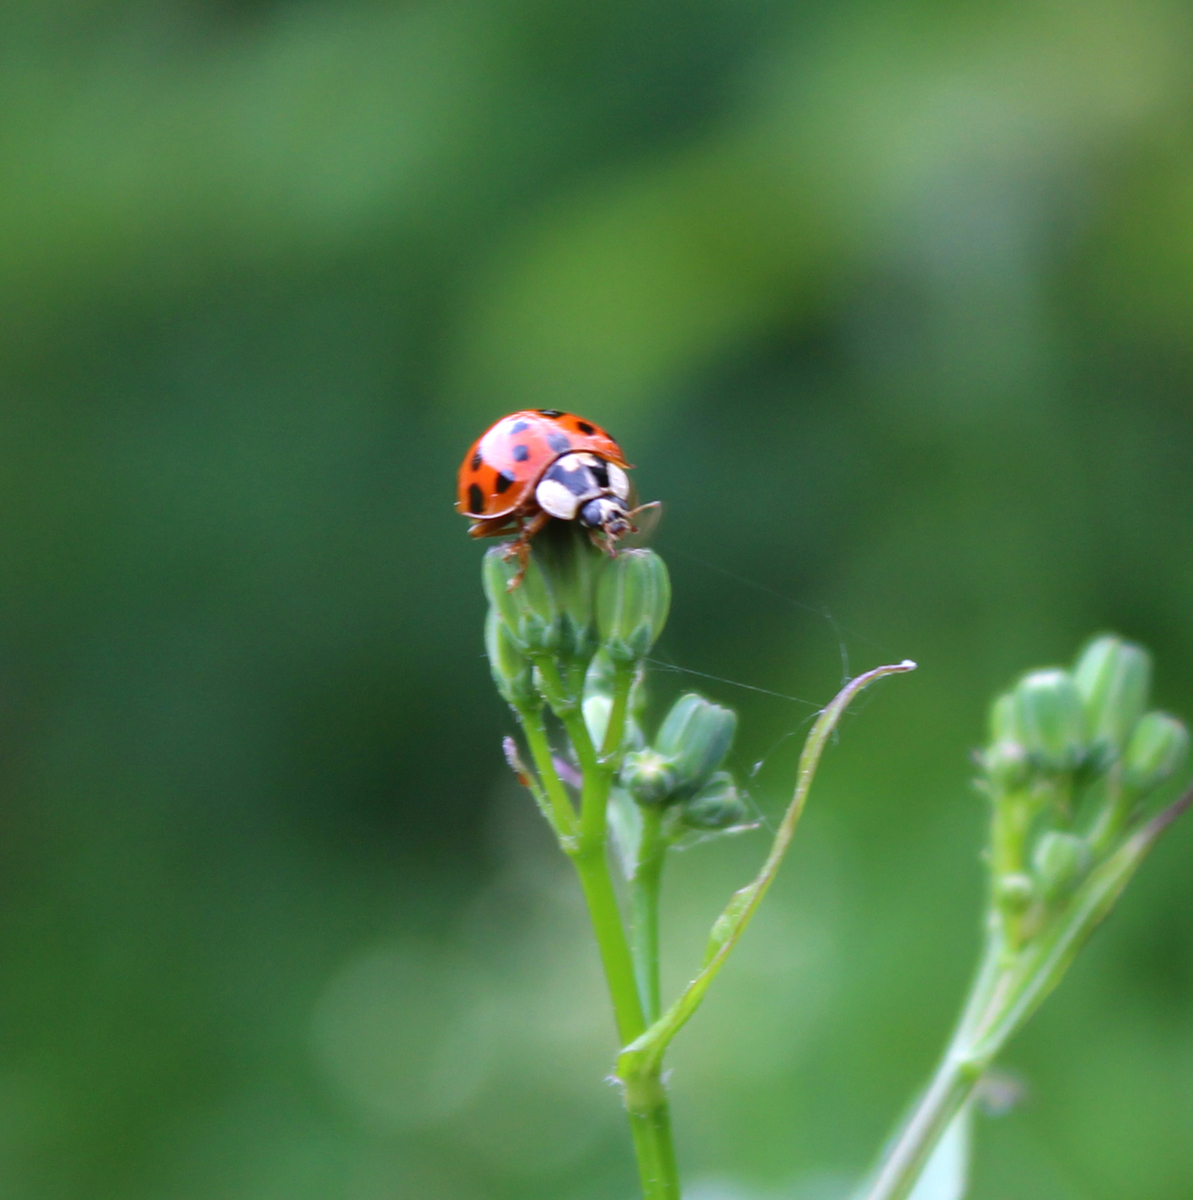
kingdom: Animalia
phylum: Arthropoda
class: Insecta
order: Coleoptera
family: Coccinellidae
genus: Harmonia
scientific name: Harmonia axyridis
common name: Harlequin ladybird
